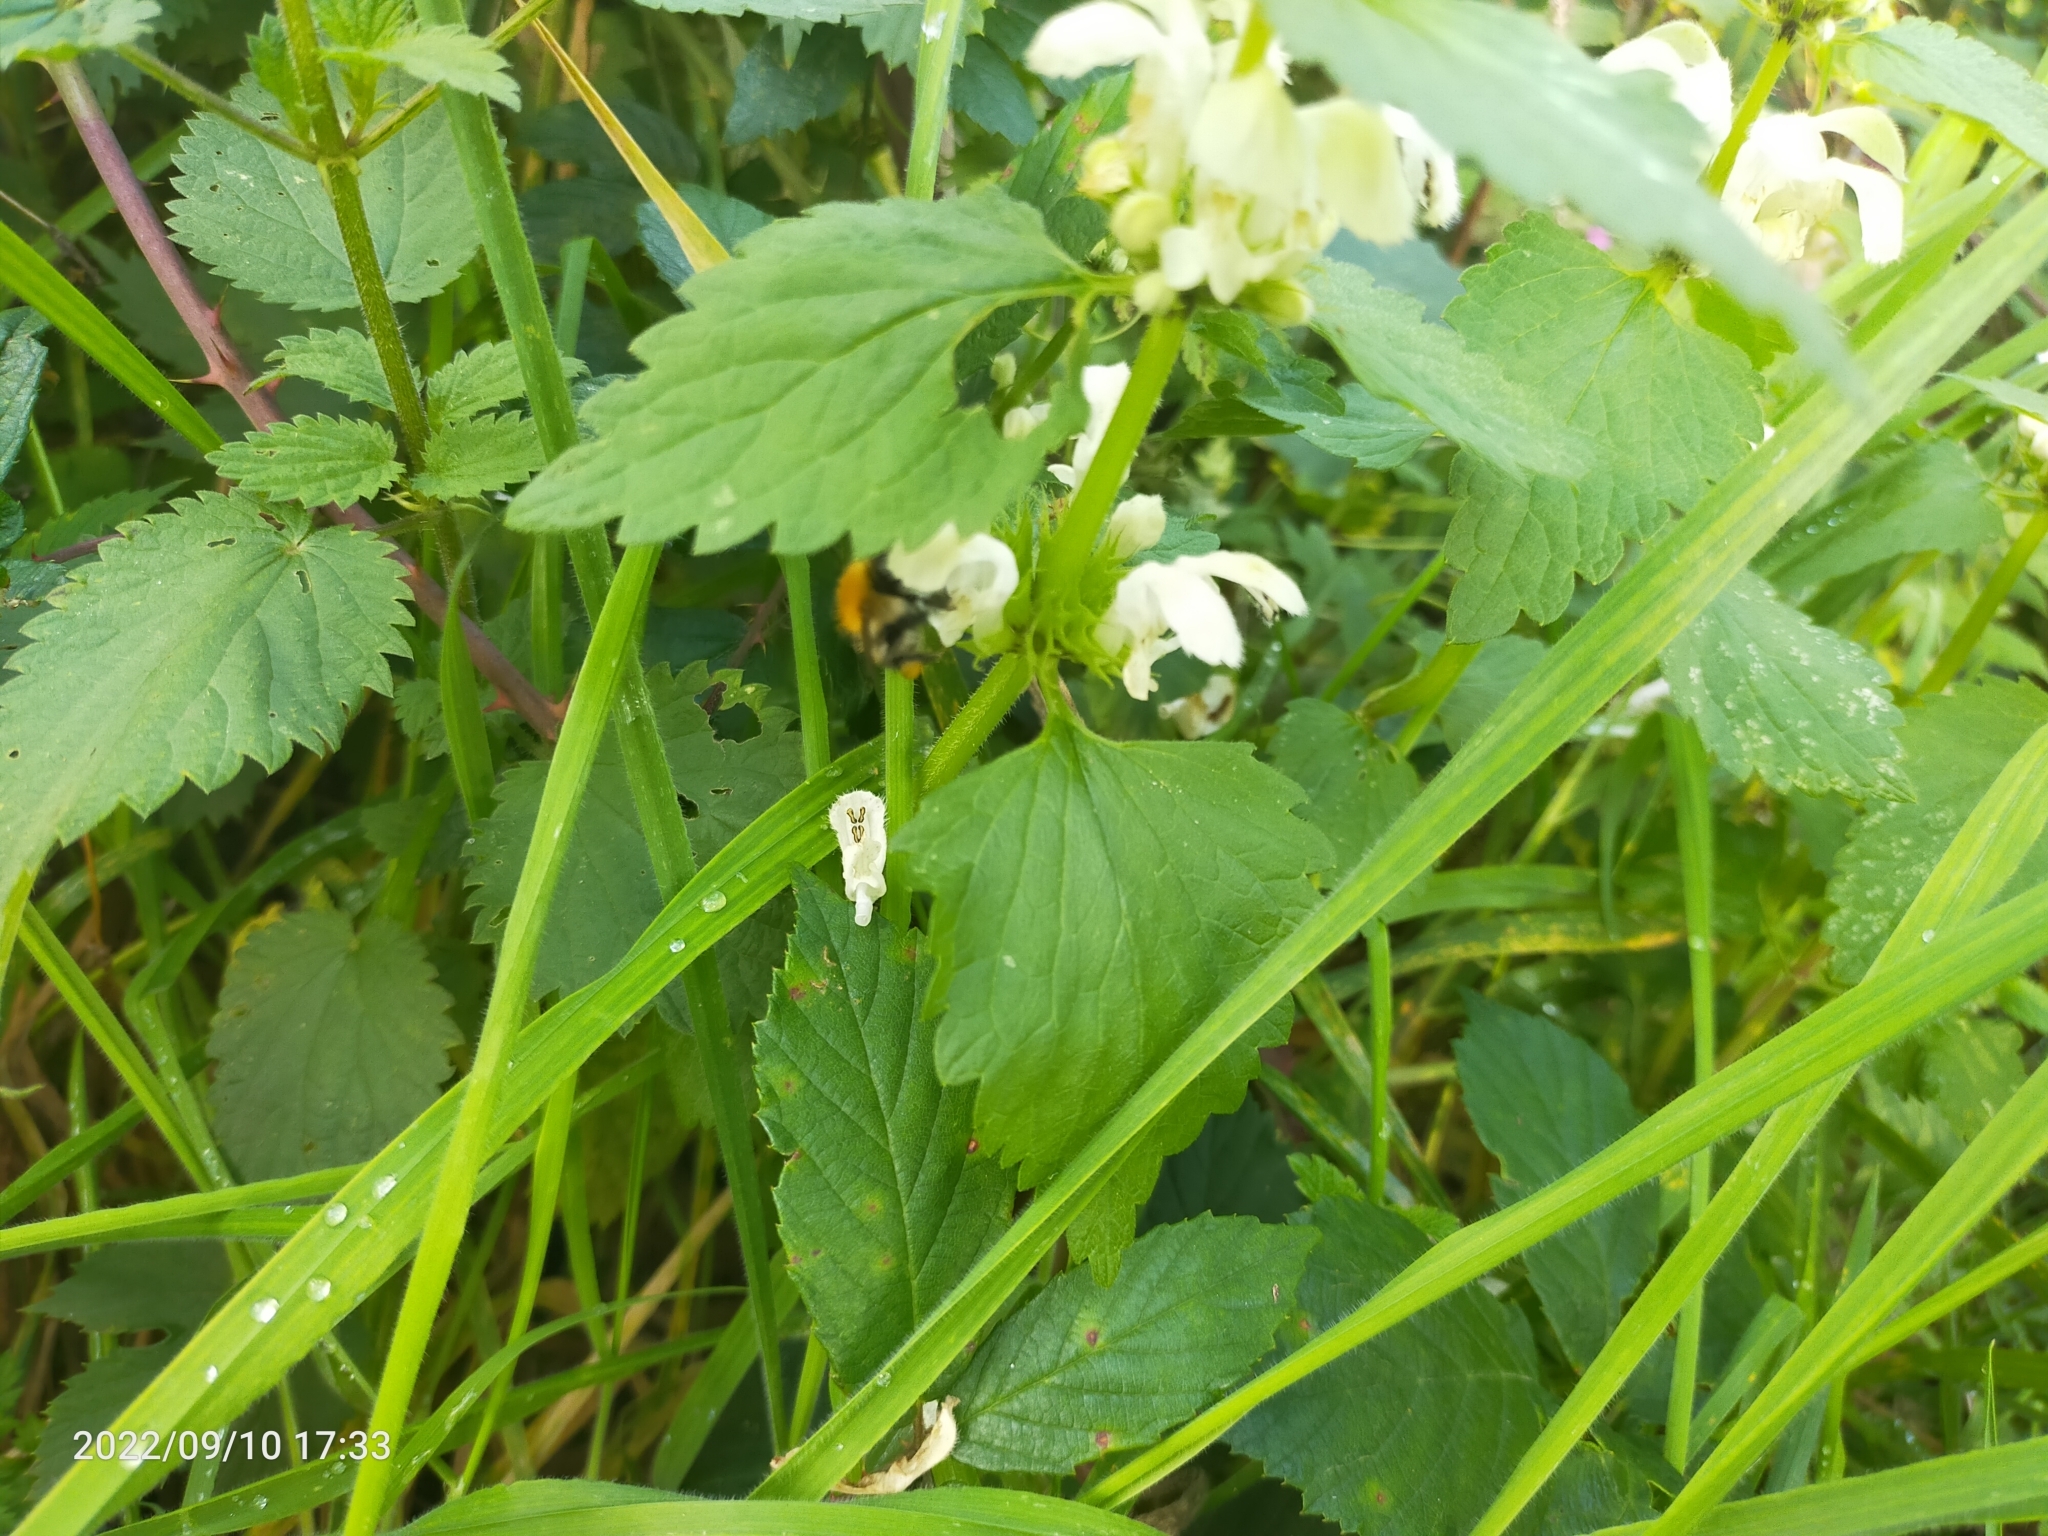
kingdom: Plantae
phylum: Tracheophyta
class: Magnoliopsida
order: Lamiales
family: Lamiaceae
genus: Lamium
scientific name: Lamium album
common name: White dead-nettle
